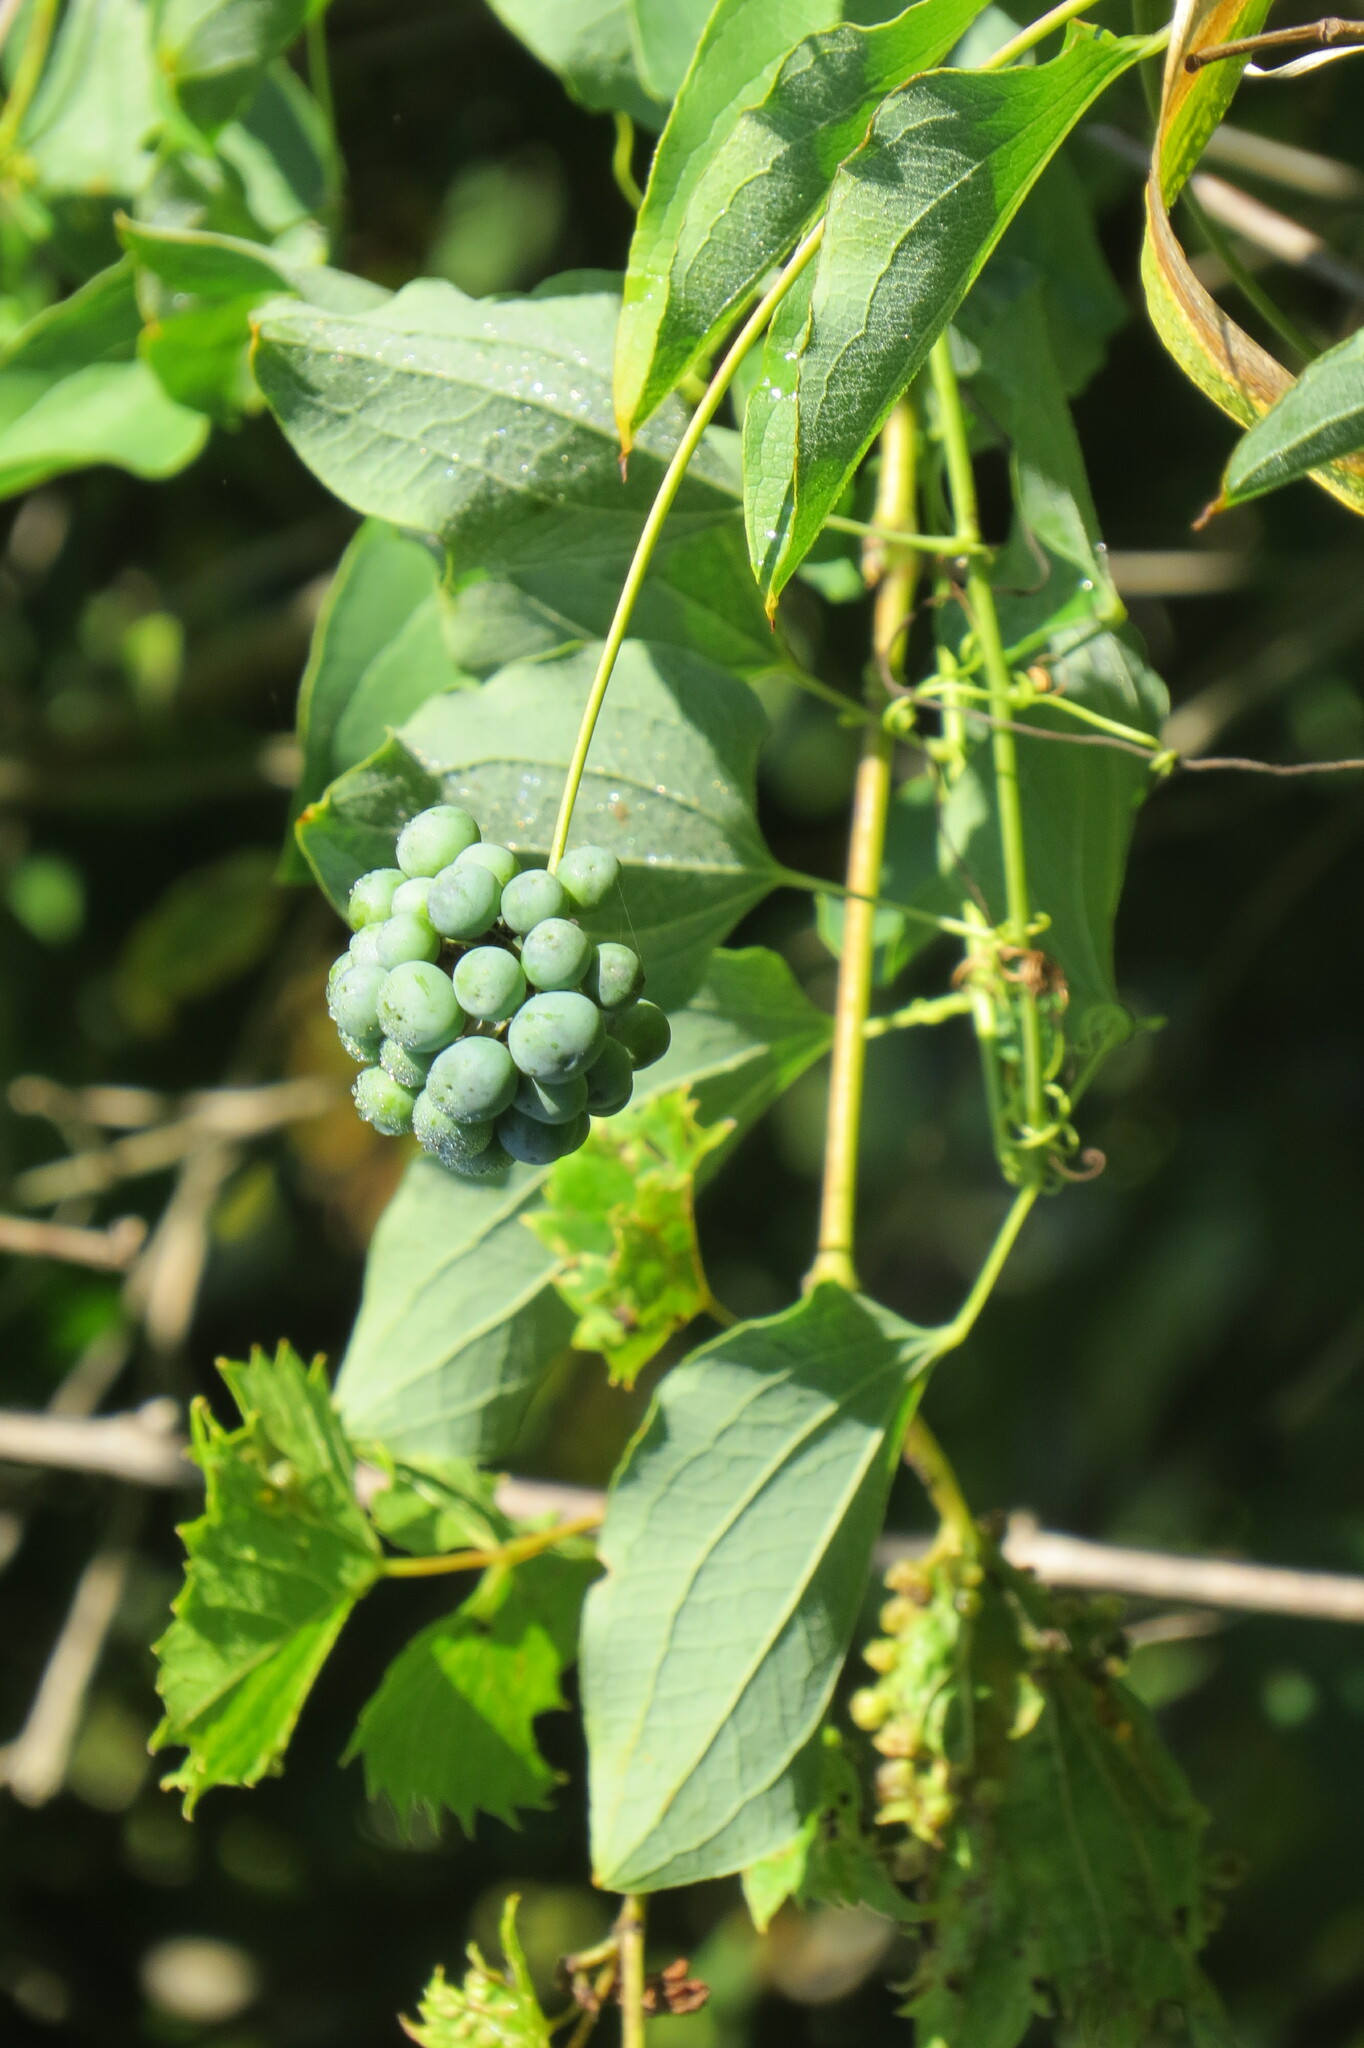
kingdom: Plantae
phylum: Tracheophyta
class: Liliopsida
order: Liliales
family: Smilacaceae
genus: Smilax
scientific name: Smilax lasioneura
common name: Blue ridge carrionflower
